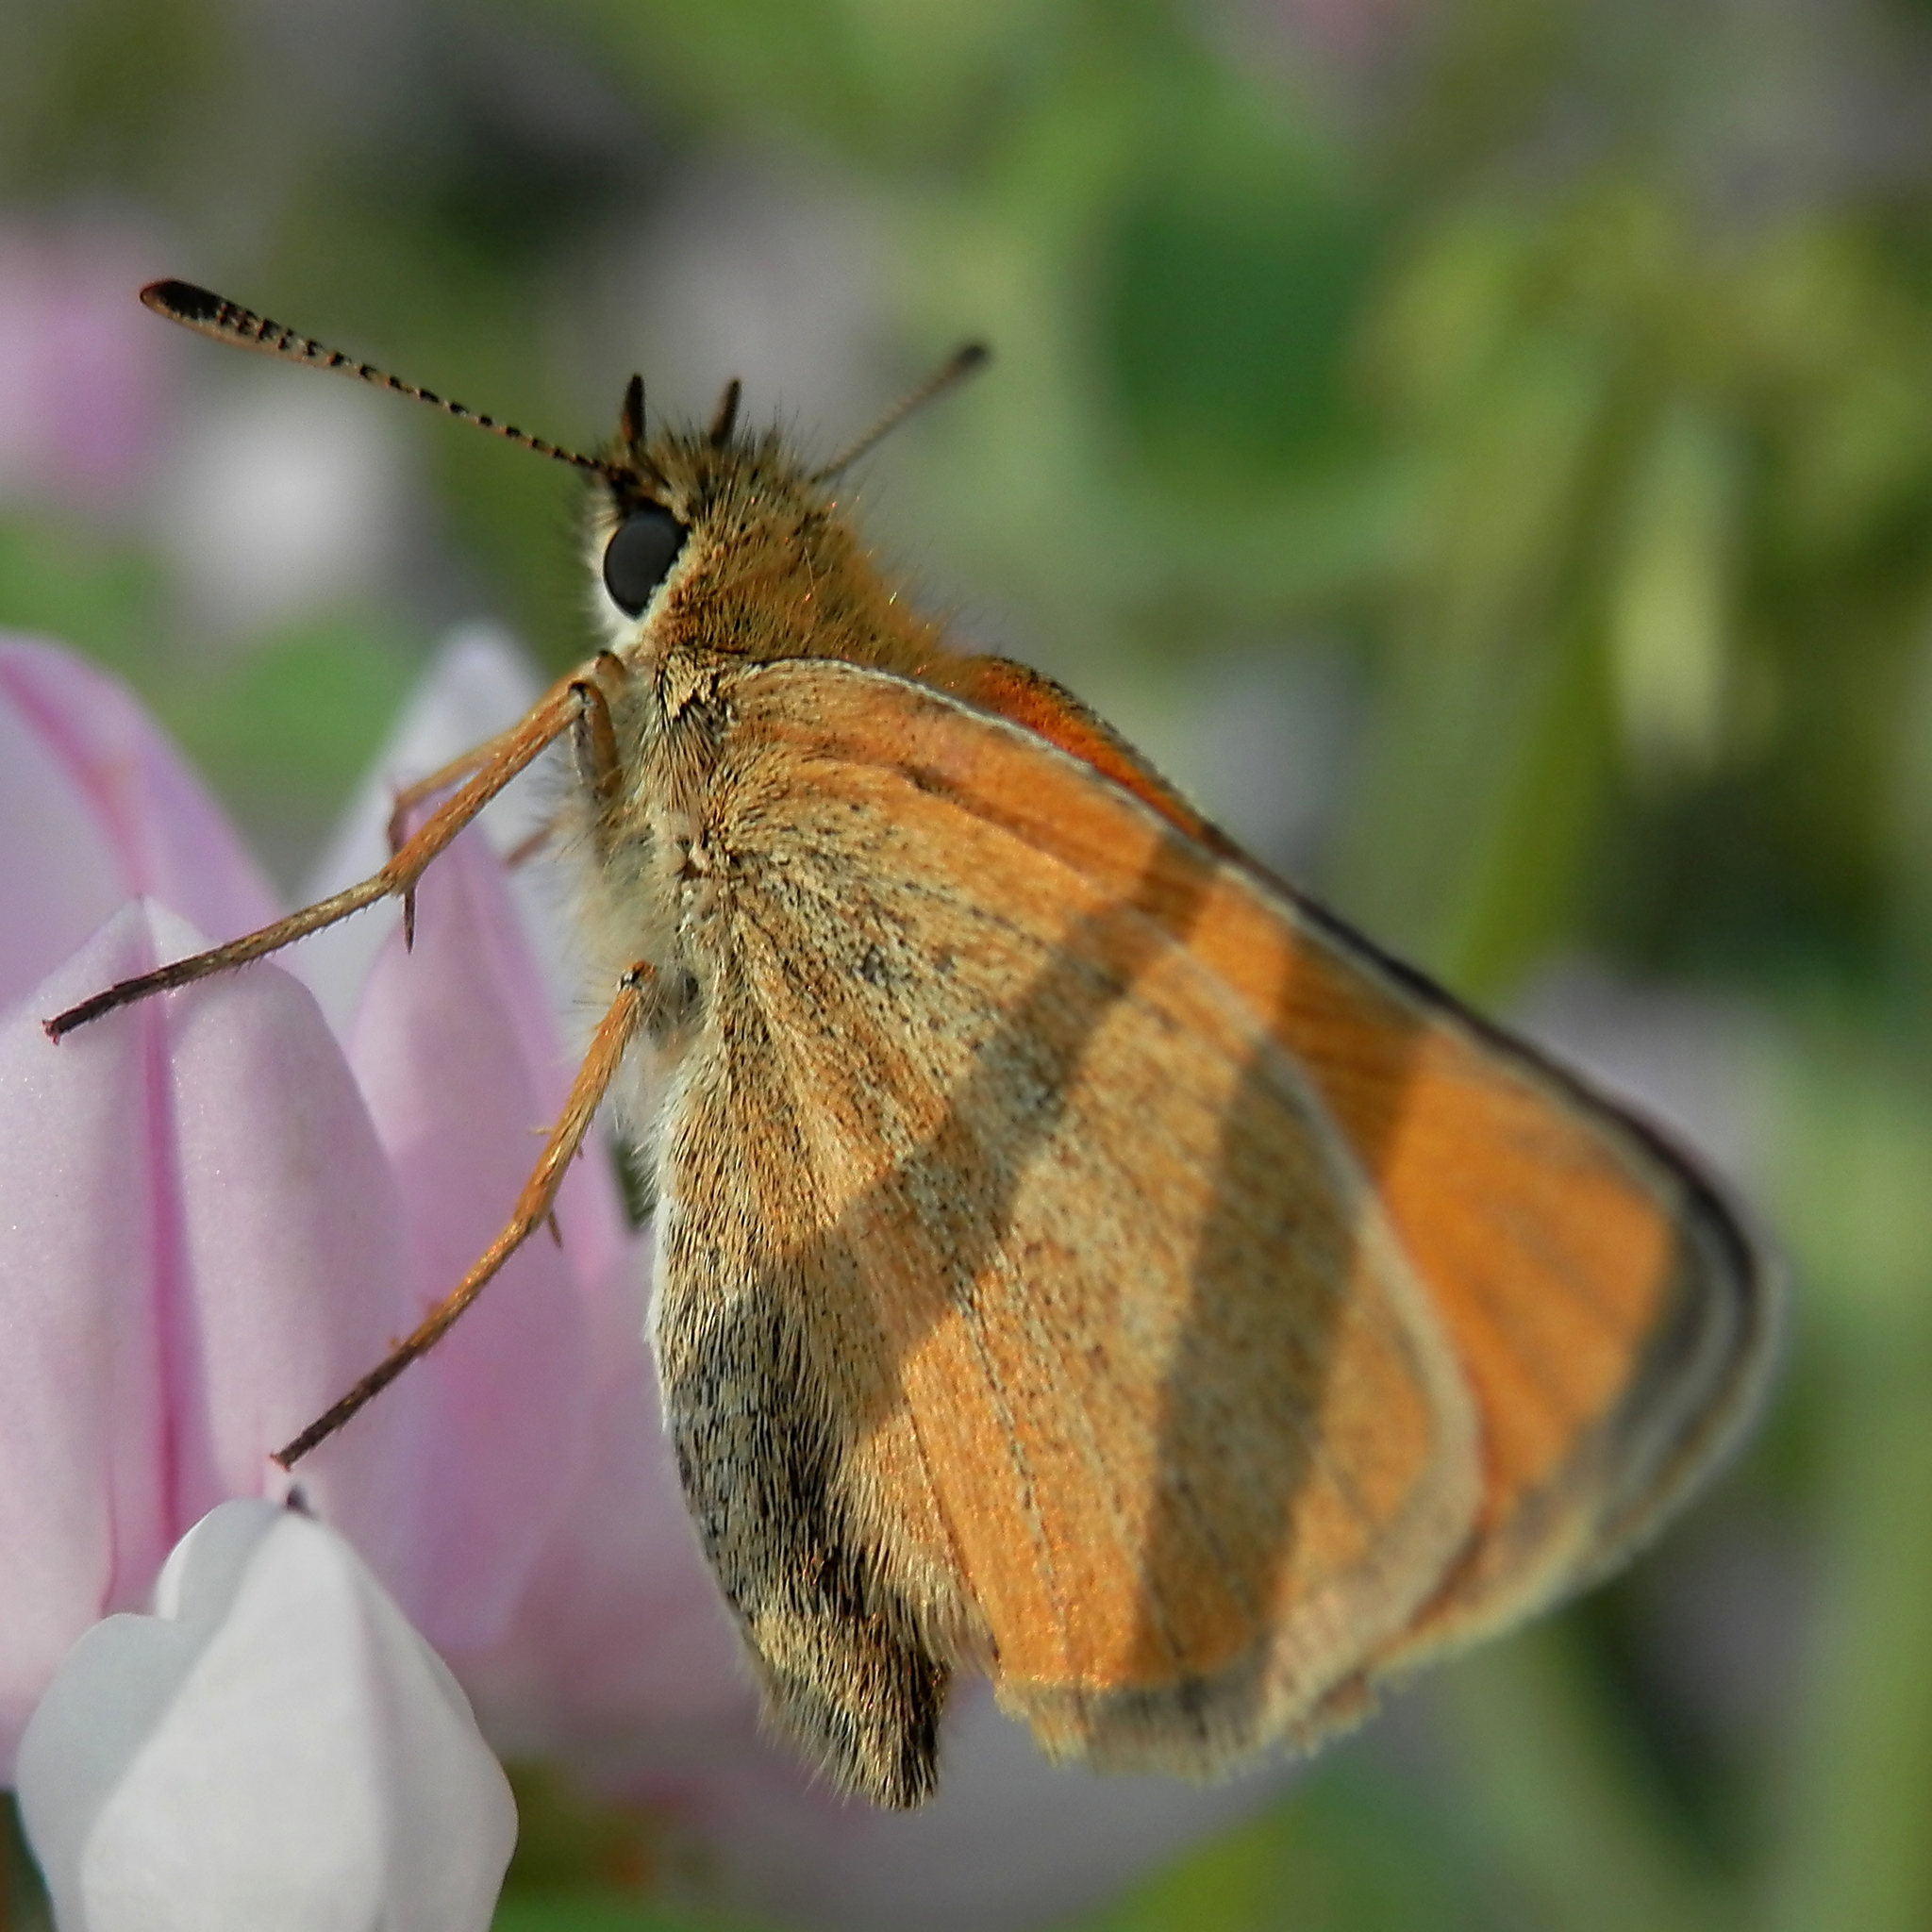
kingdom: Animalia
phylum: Arthropoda
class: Insecta
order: Lepidoptera
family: Hesperiidae
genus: Thymelicus
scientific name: Thymelicus lineola
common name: Essex skipper
